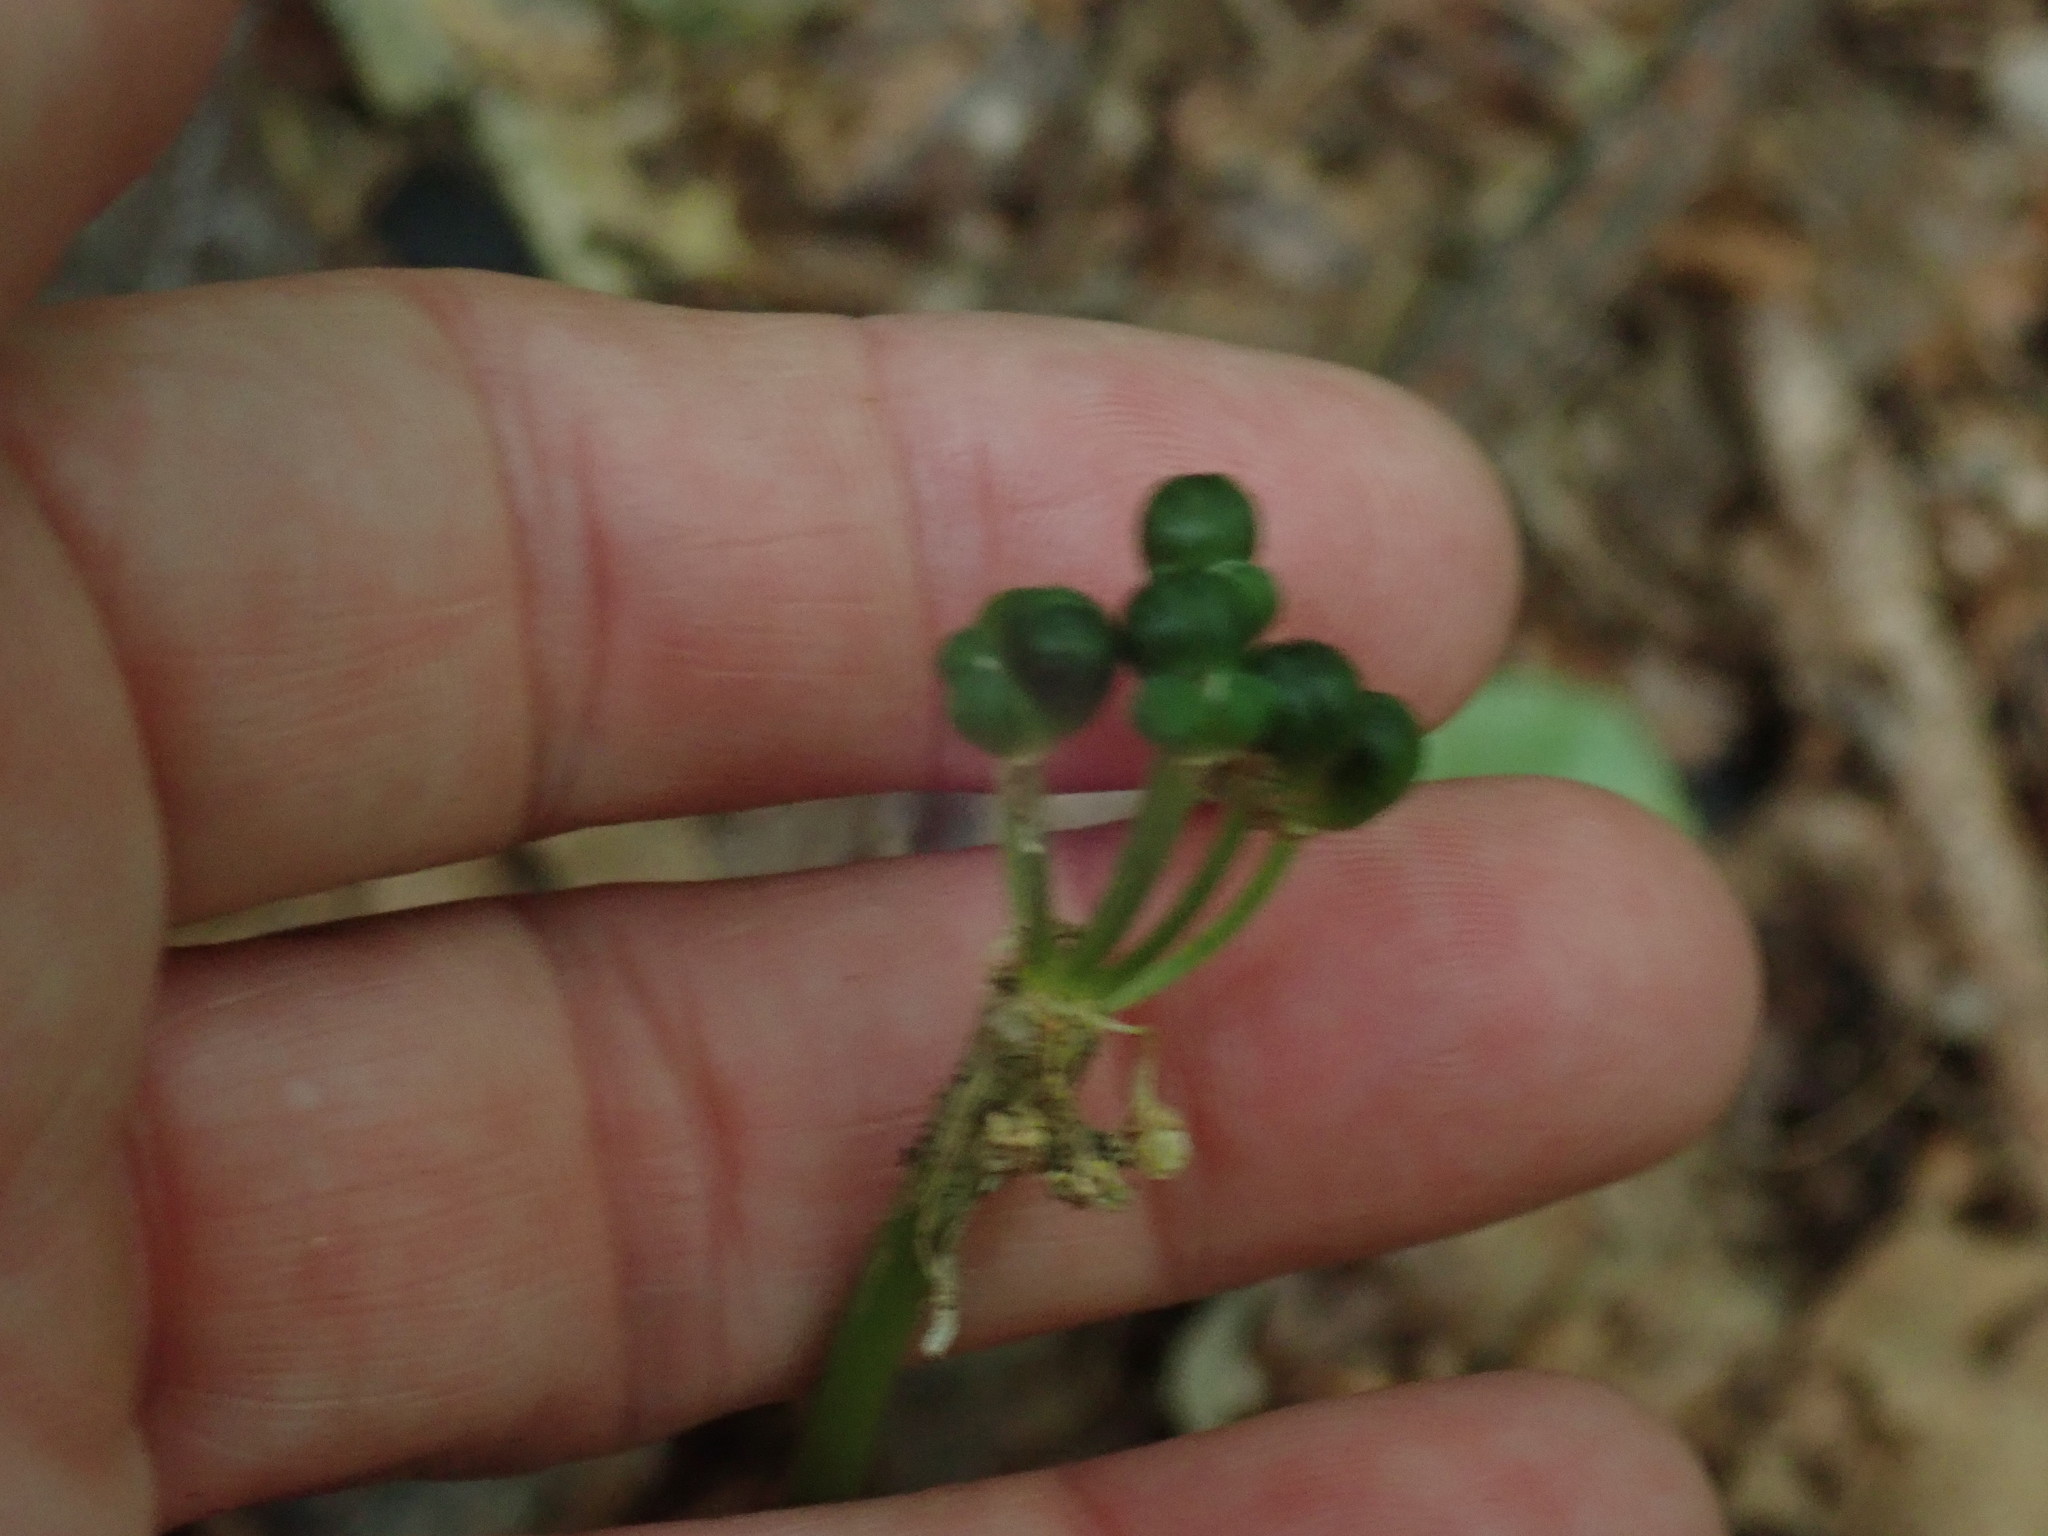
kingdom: Plantae
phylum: Tracheophyta
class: Liliopsida
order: Asparagales
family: Amaryllidaceae
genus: Allium
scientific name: Allium tricoccum
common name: Ramp
